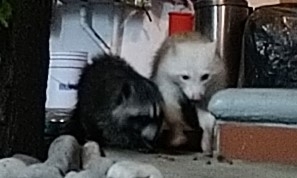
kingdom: Animalia
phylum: Chordata
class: Mammalia
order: Carnivora
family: Procyonidae
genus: Procyon
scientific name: Procyon lotor
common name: Raccoon
